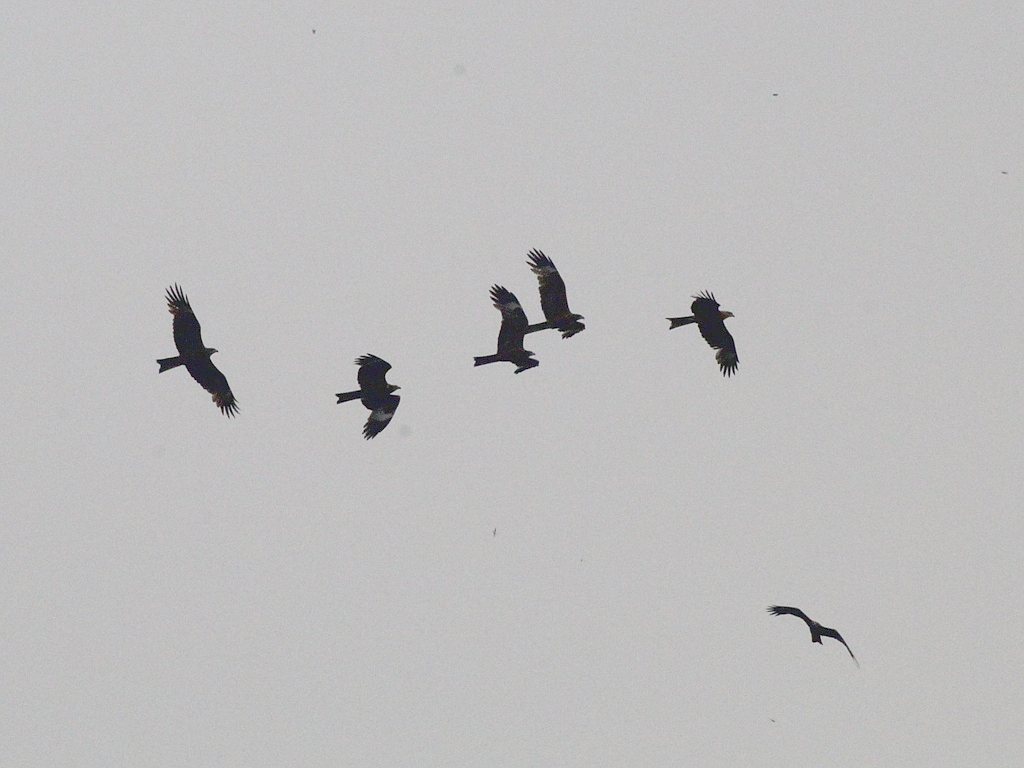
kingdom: Animalia
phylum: Chordata
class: Aves
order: Accipitriformes
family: Accipitridae
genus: Milvus
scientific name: Milvus migrans
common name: Black kite
